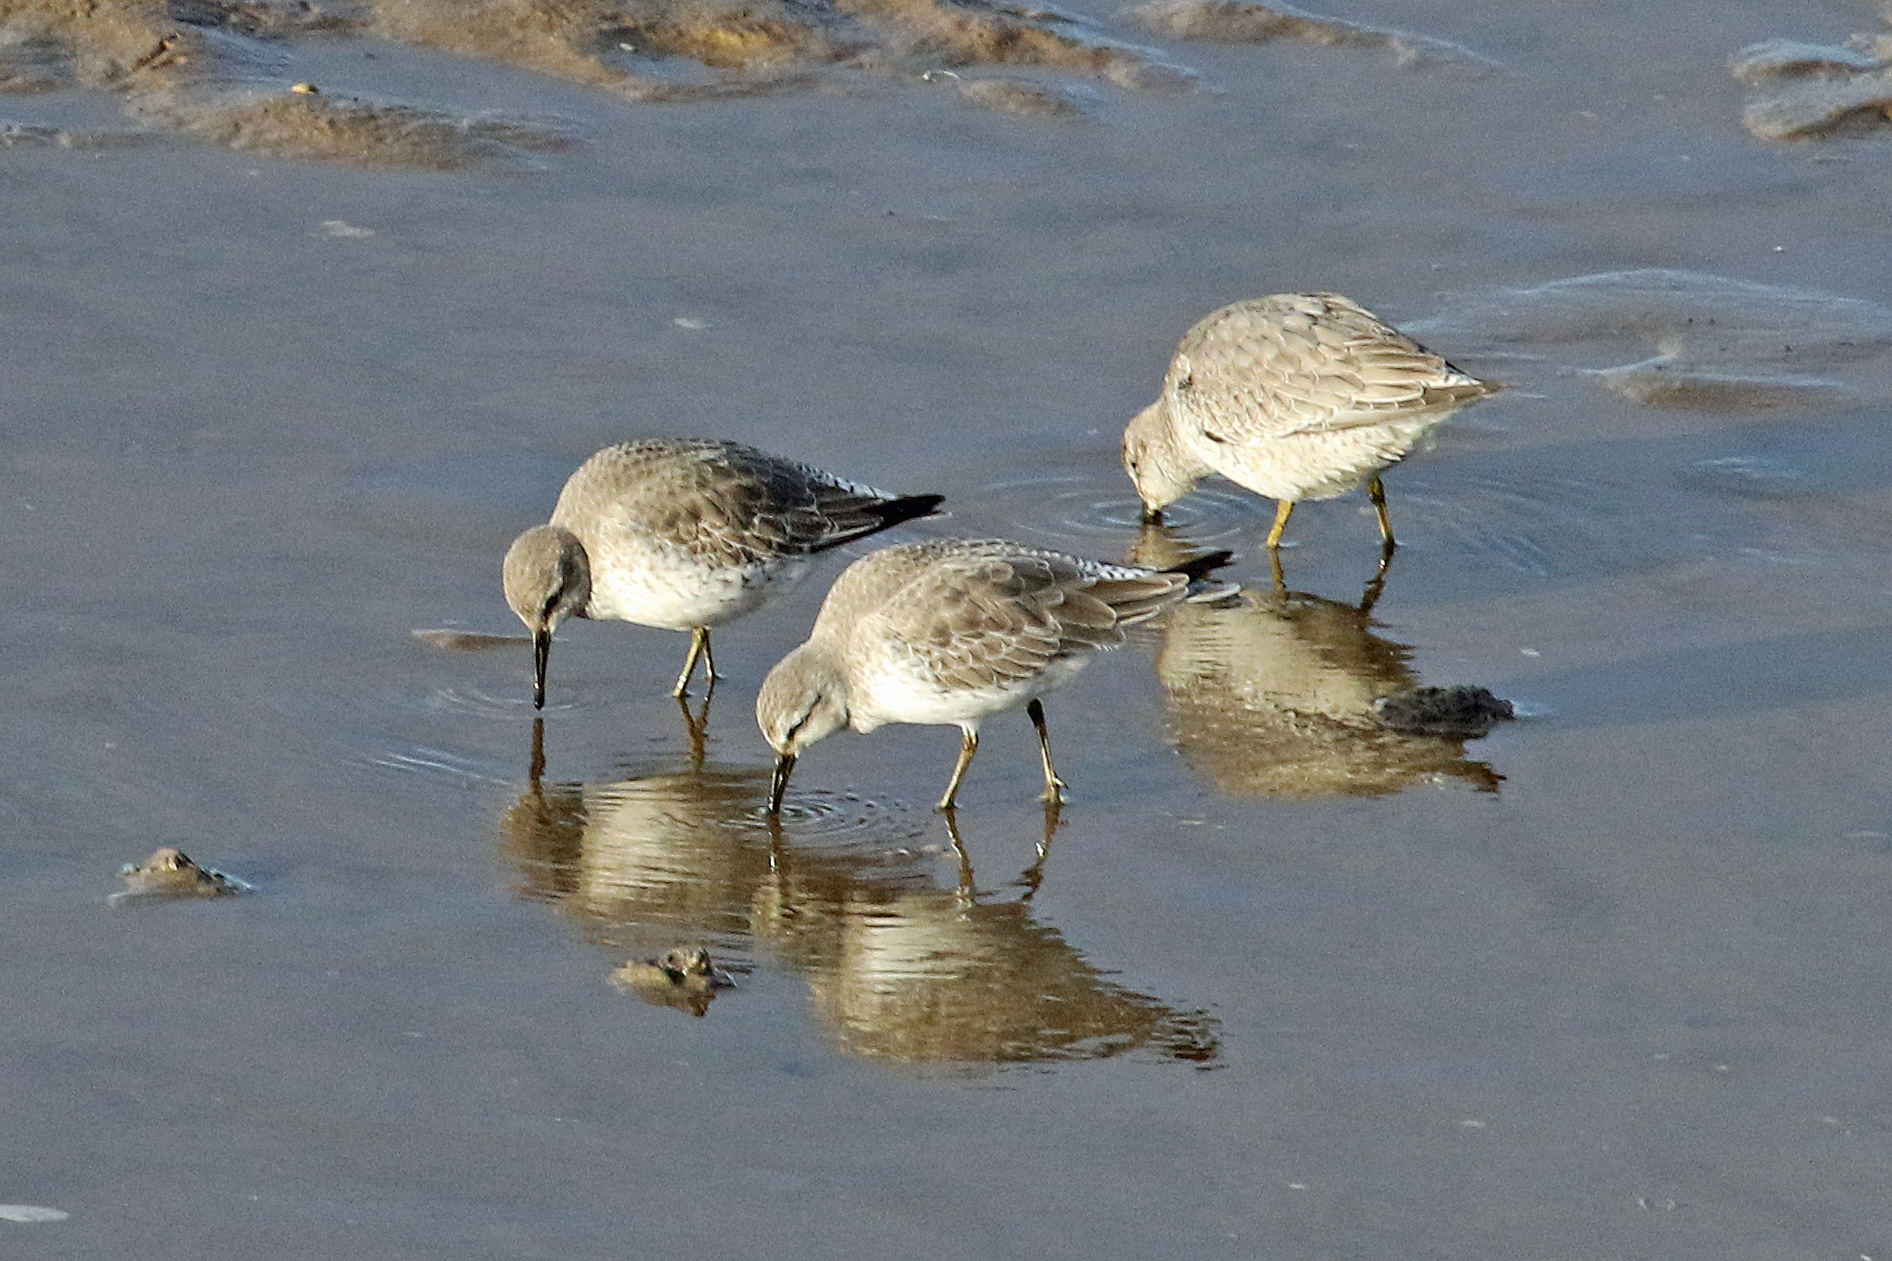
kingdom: Animalia
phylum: Chordata
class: Aves
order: Charadriiformes
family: Scolopacidae
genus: Calidris
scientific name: Calidris canutus
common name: Red knot
